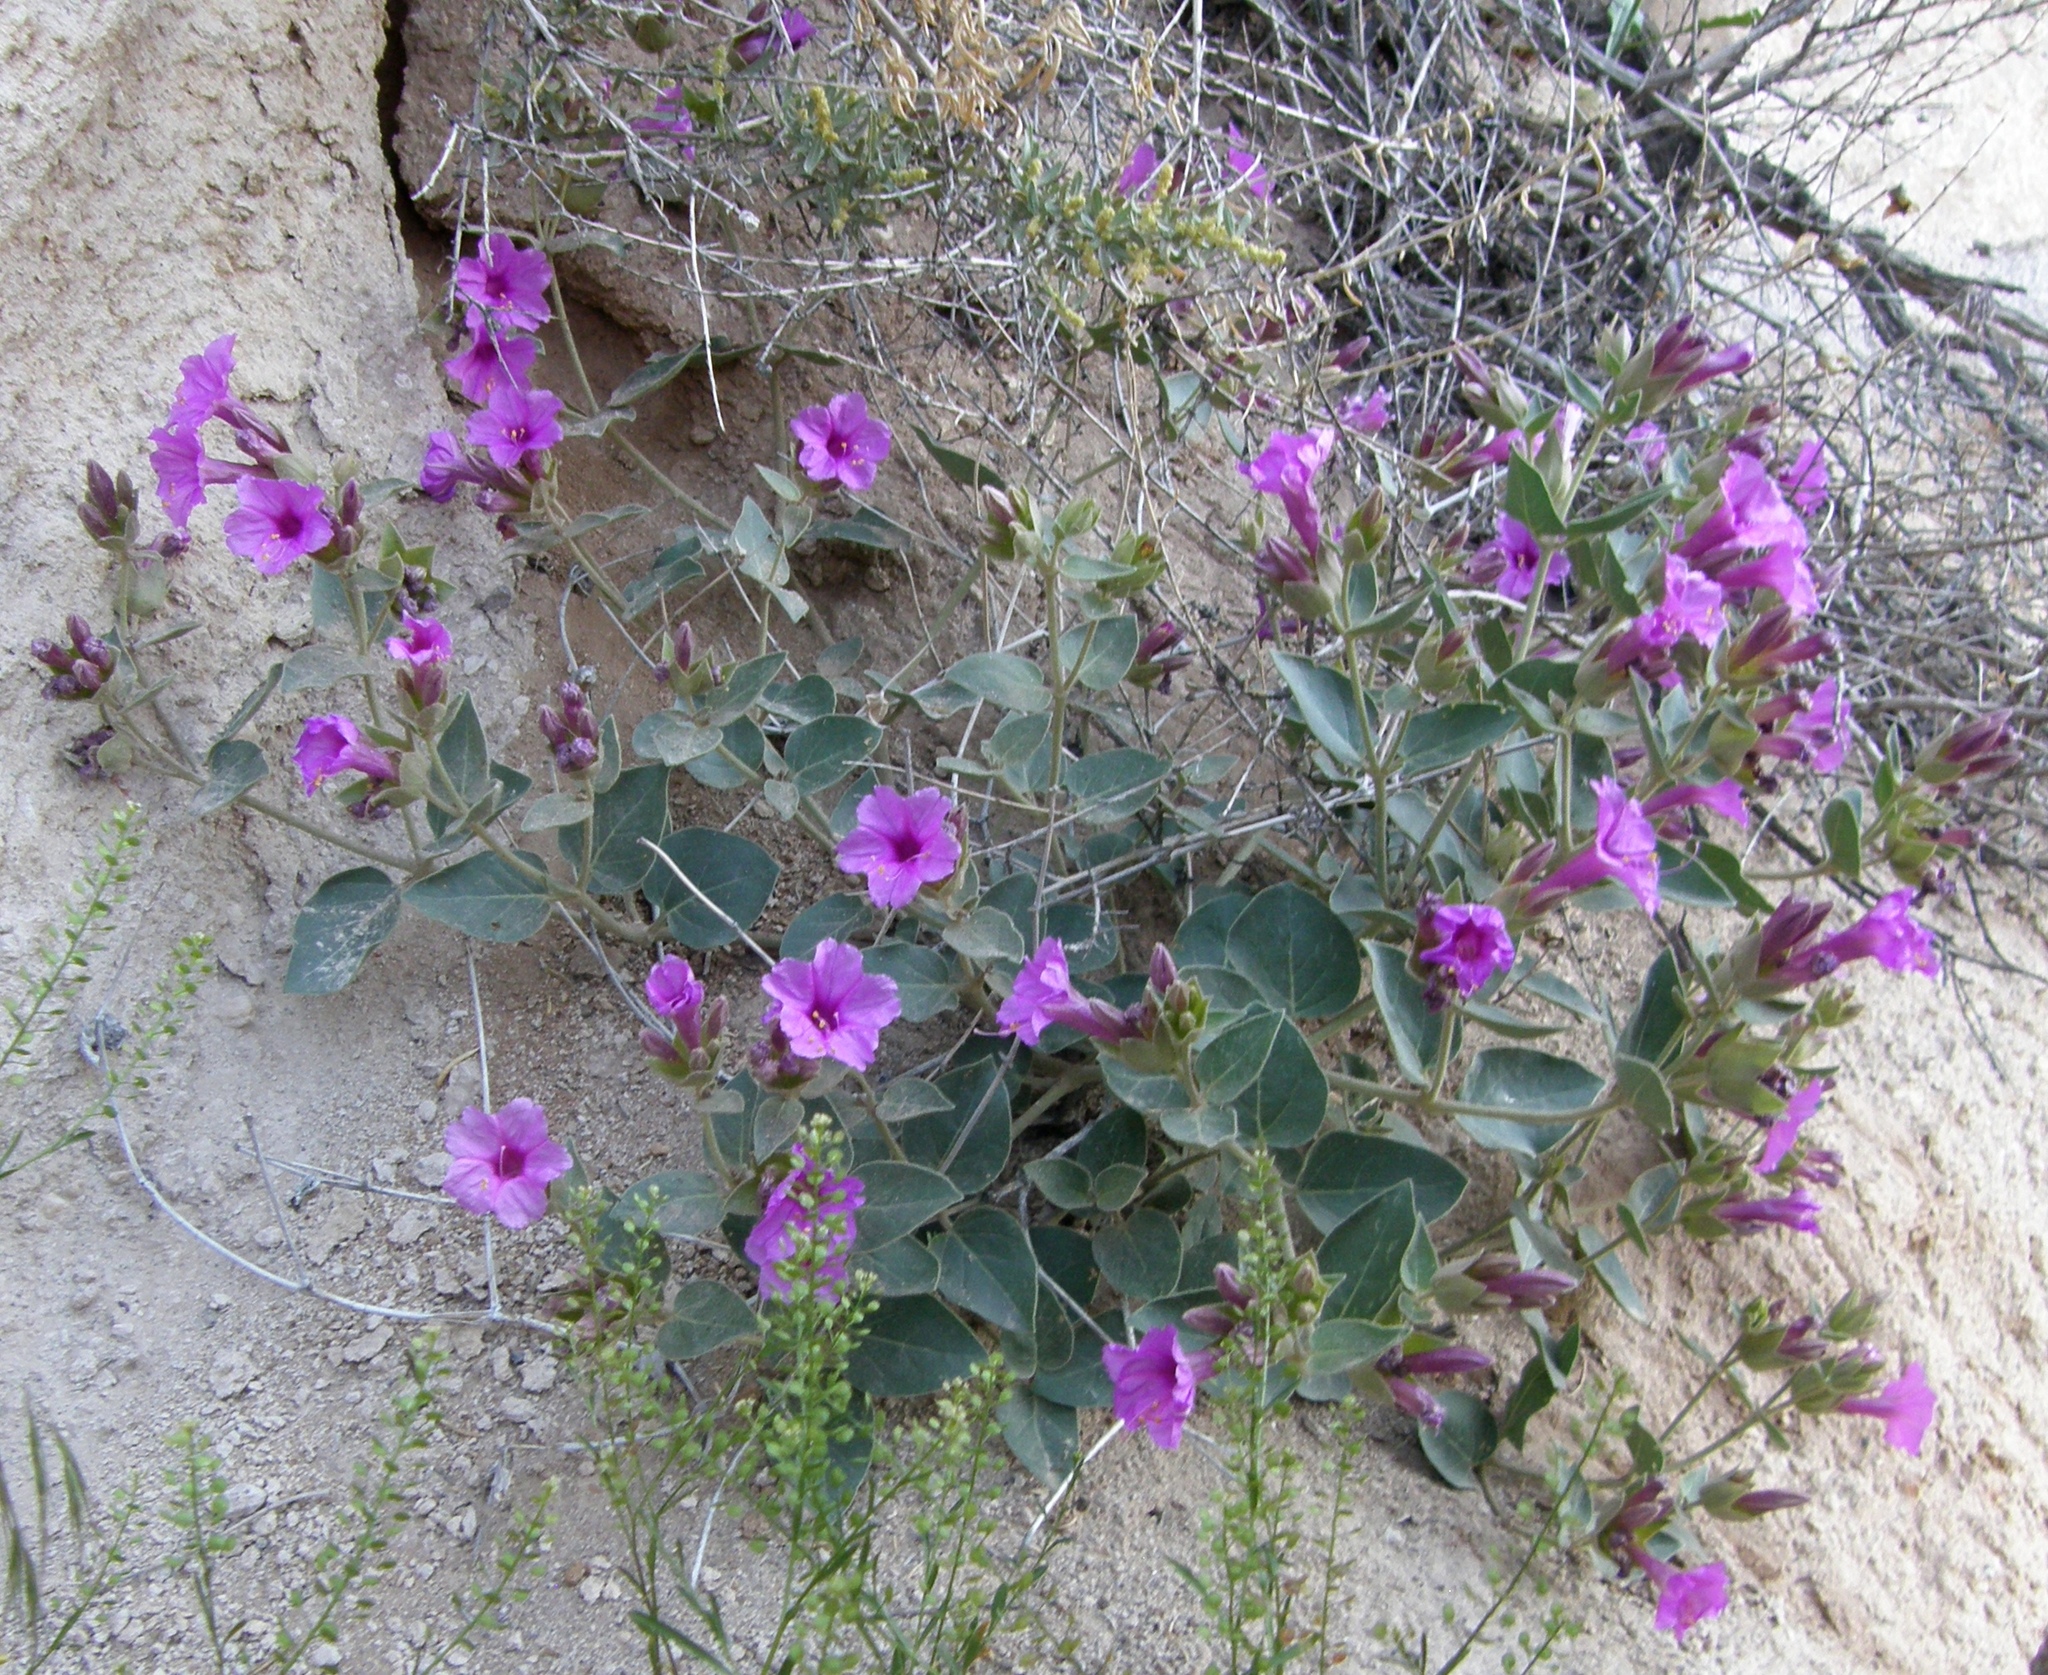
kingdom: Plantae
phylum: Tracheophyta
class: Magnoliopsida
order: Caryophyllales
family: Nyctaginaceae
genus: Mirabilis
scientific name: Mirabilis multiflora
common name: Froebel's four-o'clock
